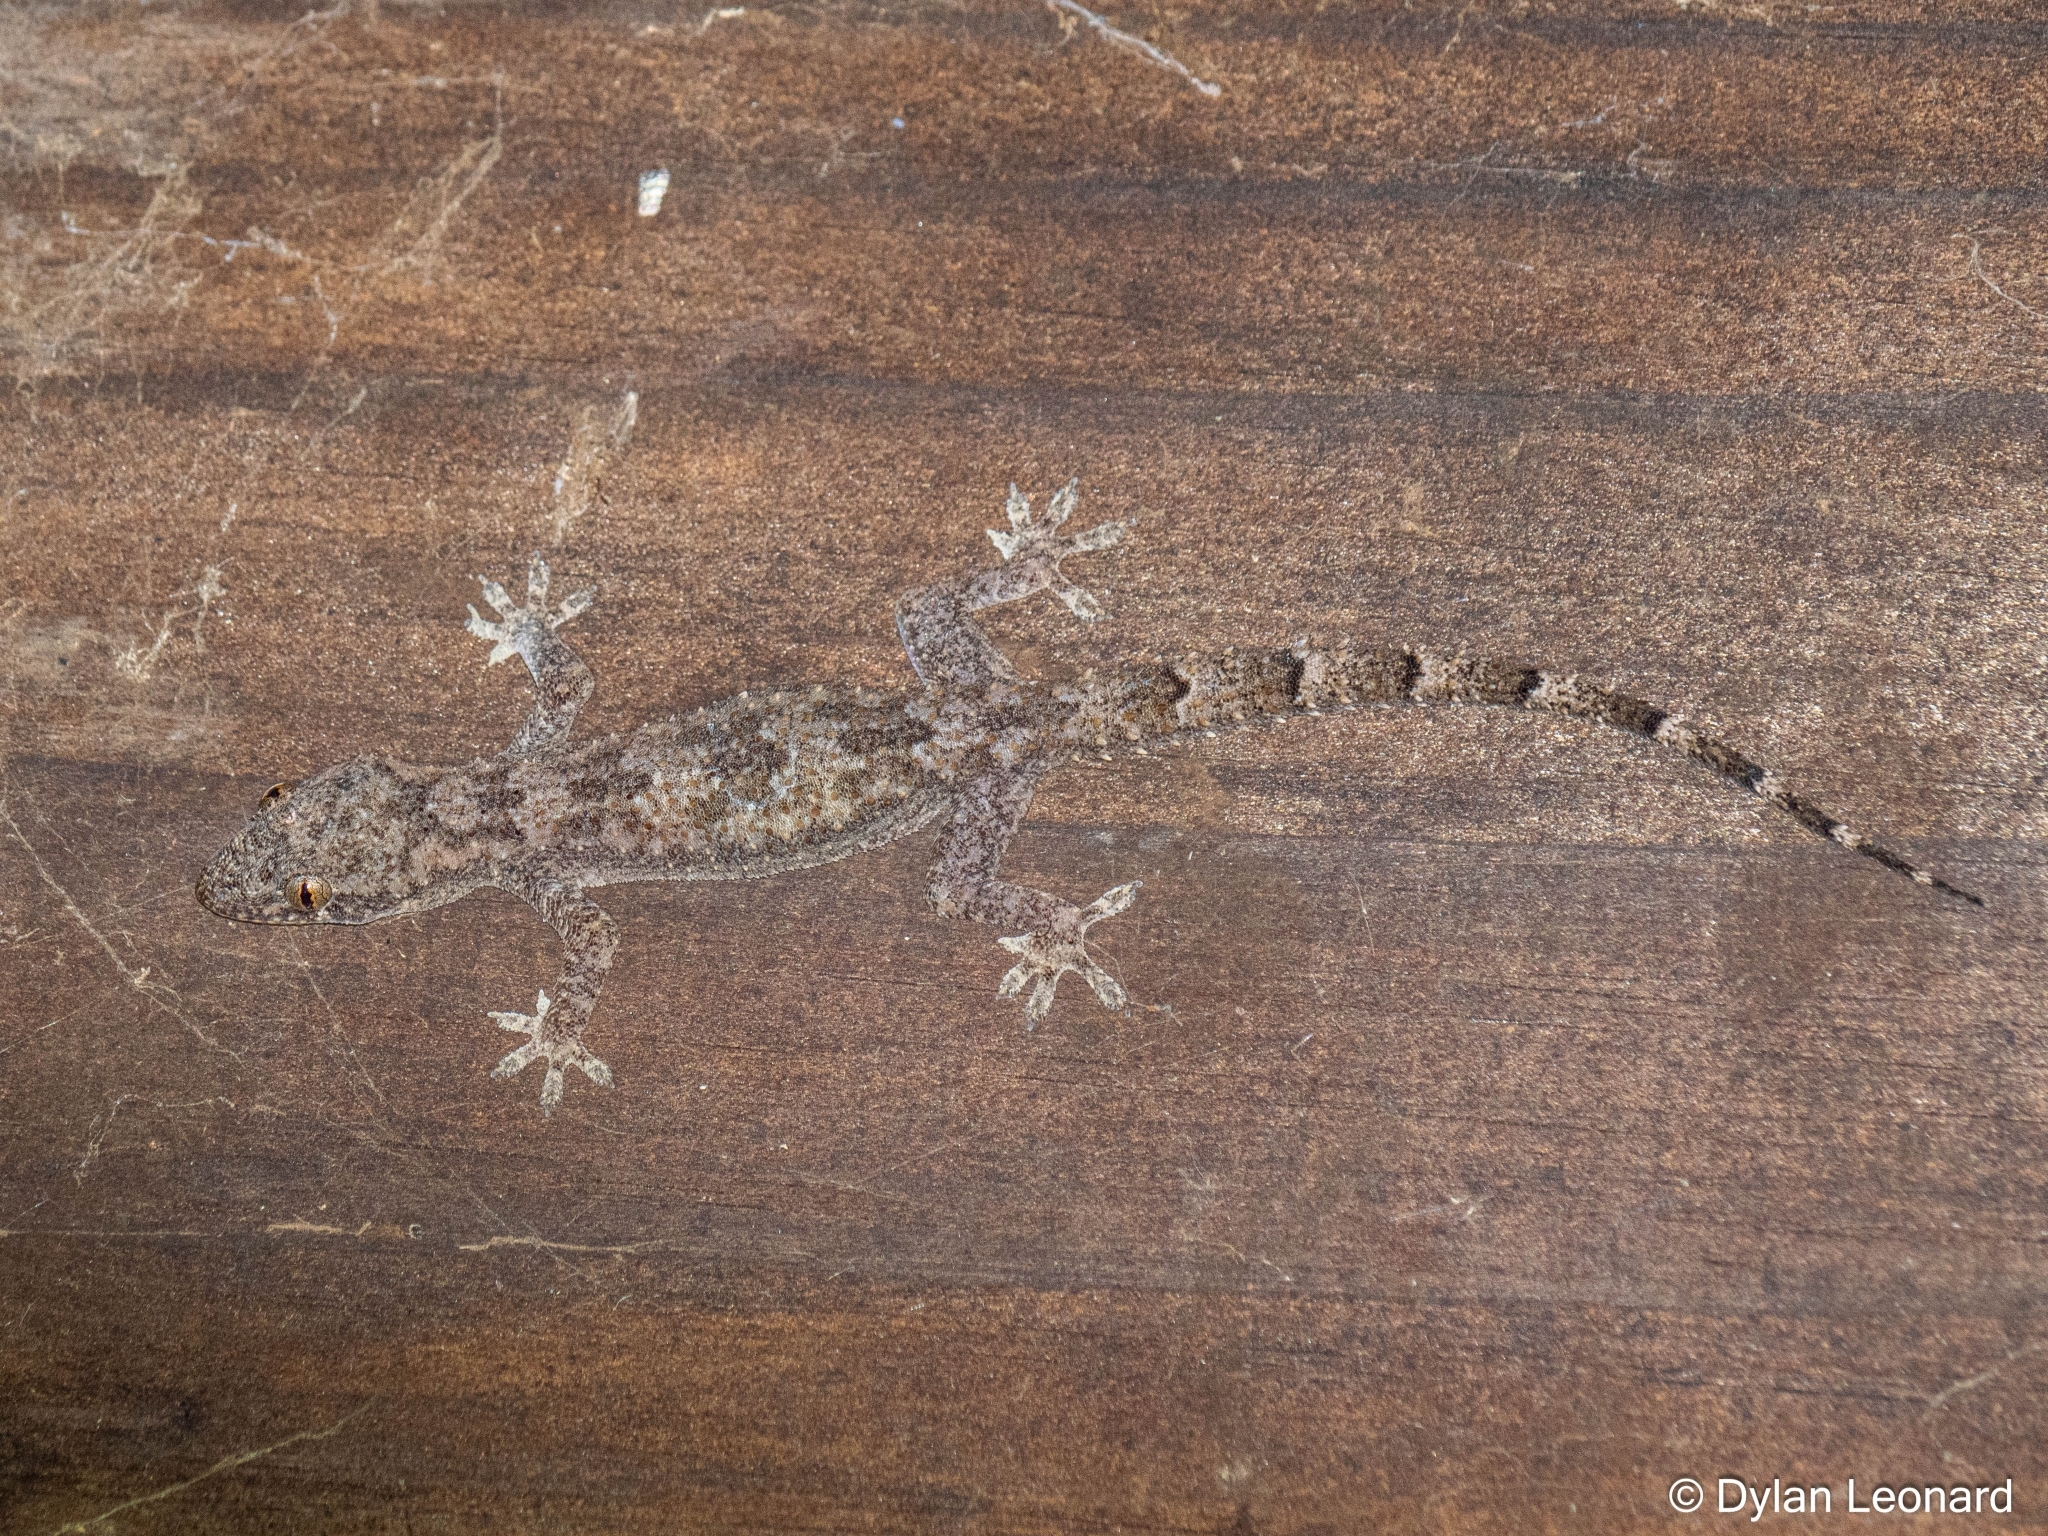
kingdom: Animalia
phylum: Chordata
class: Squamata
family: Gekkonidae
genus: Hemidactylus
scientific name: Hemidactylus mabouia
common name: House gecko
